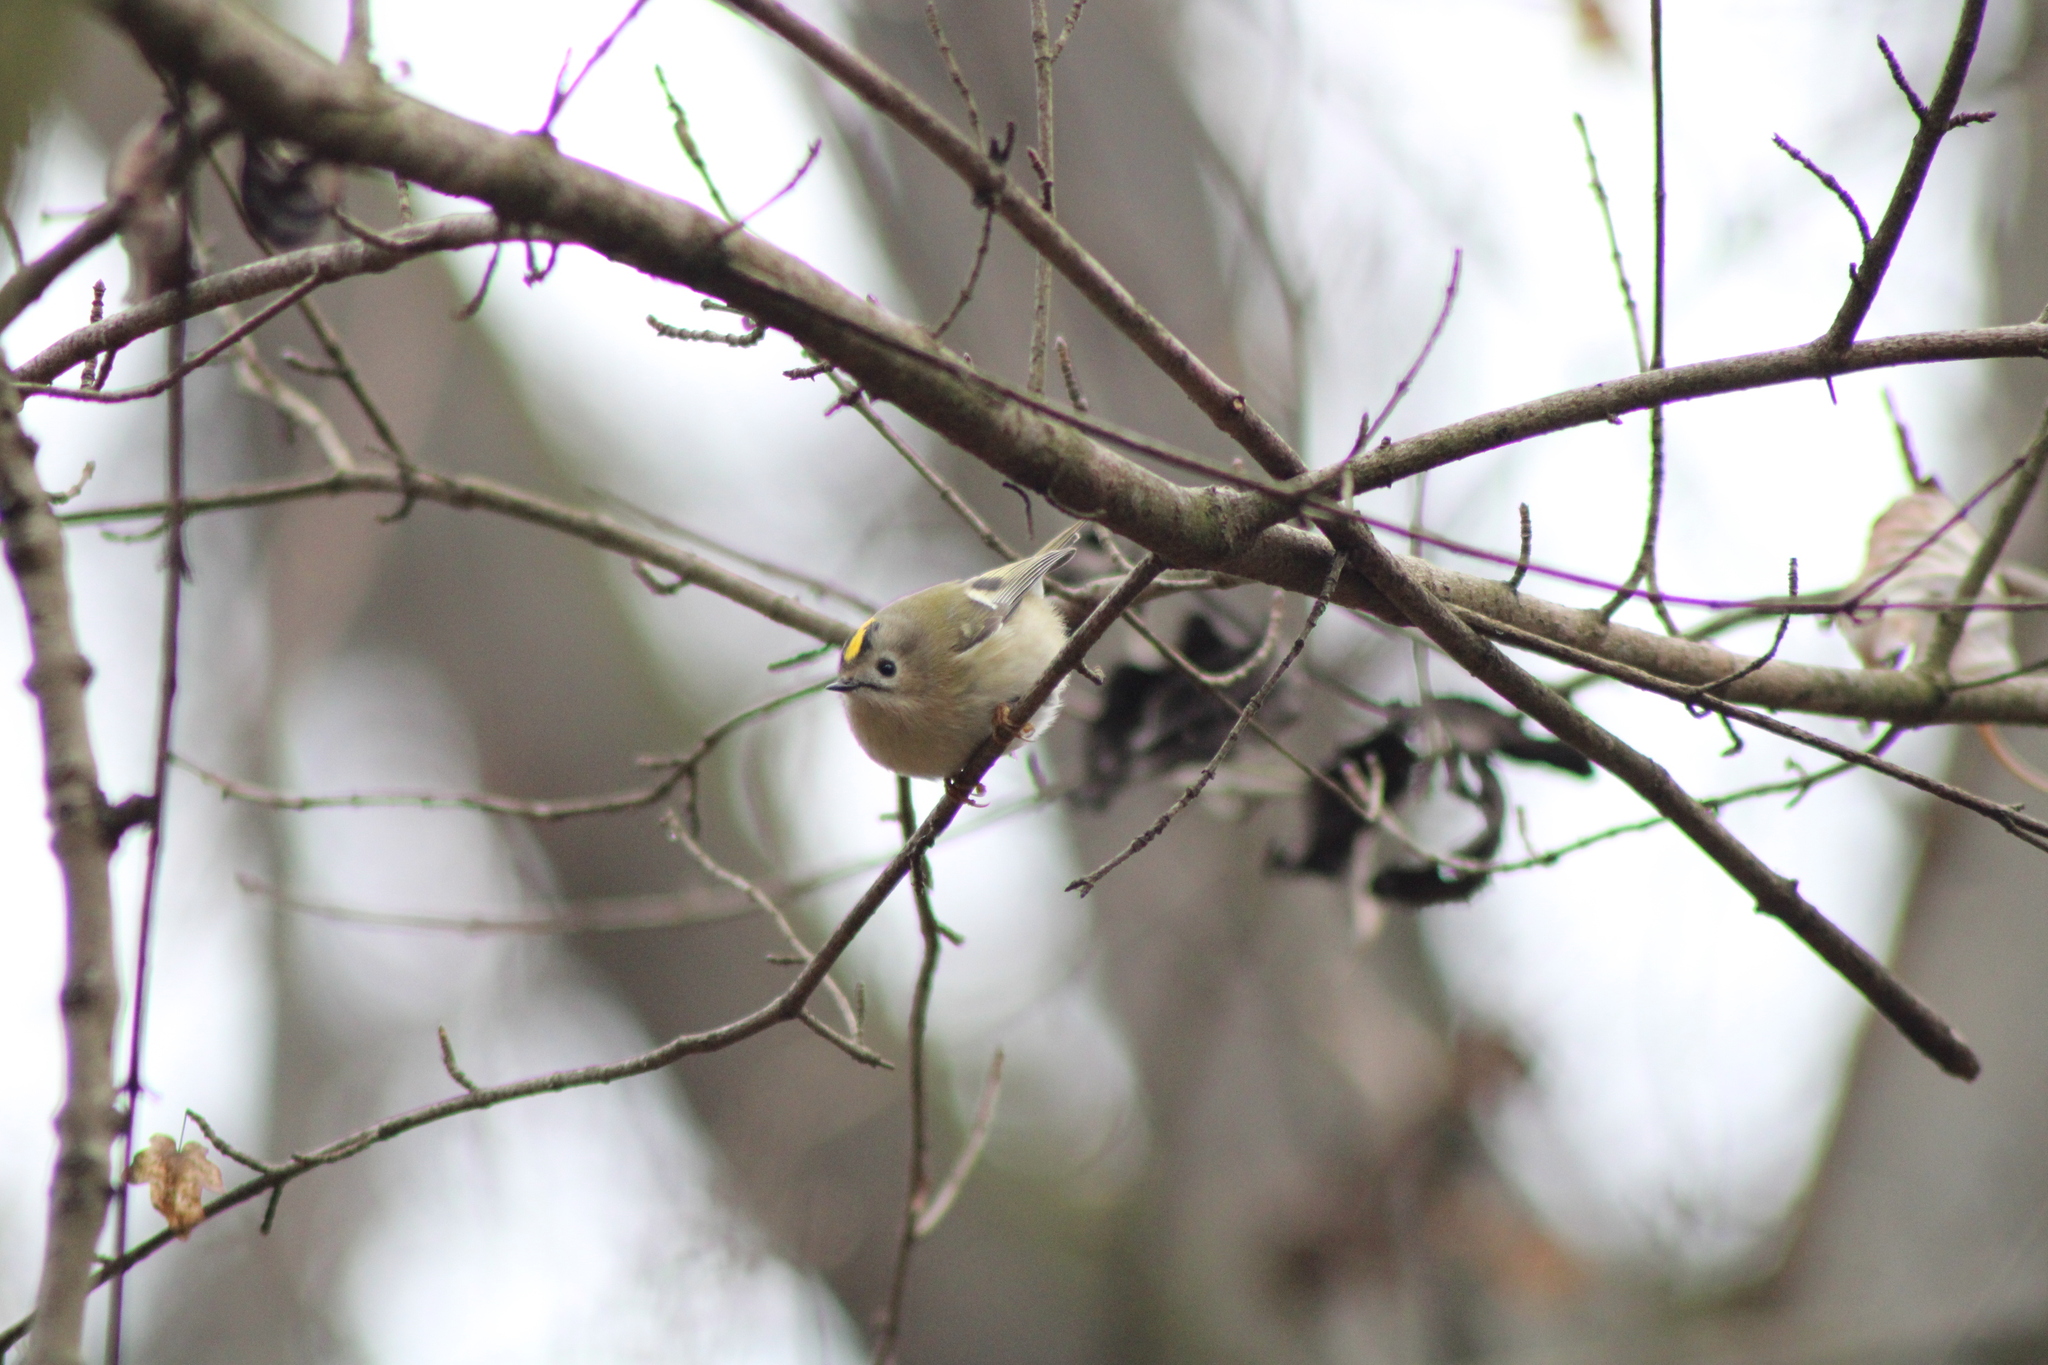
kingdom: Animalia
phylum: Chordata
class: Aves
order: Passeriformes
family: Regulidae
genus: Regulus
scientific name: Regulus regulus
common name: Goldcrest
